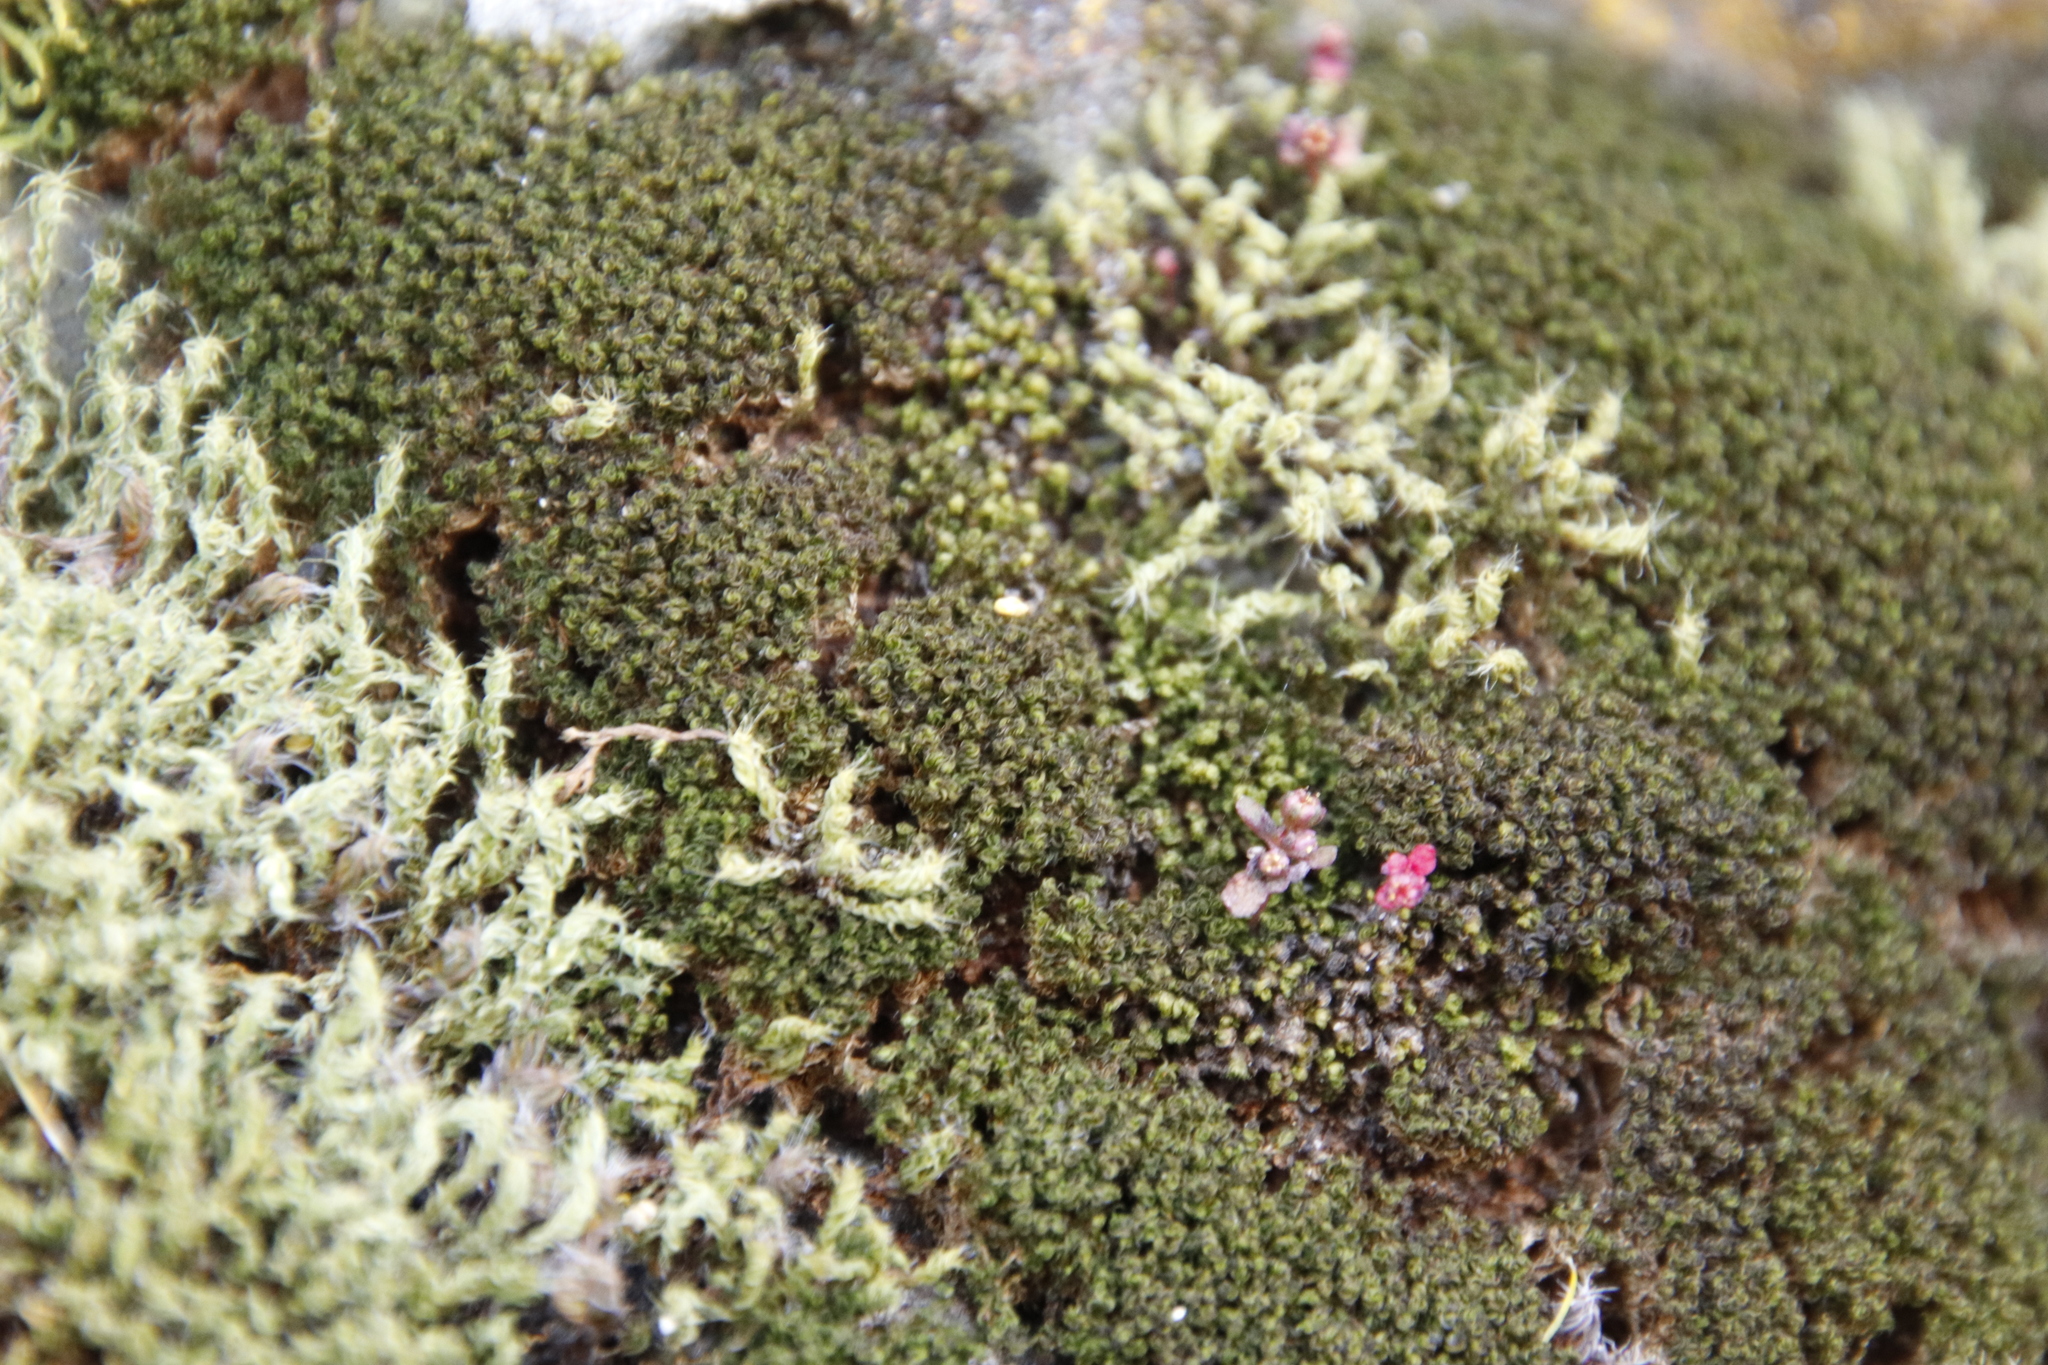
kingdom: Plantae
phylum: Bryophyta
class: Bryopsida
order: Pottiales
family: Pottiaceae
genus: Pseudocrossidium
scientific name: Pseudocrossidium crinitum
